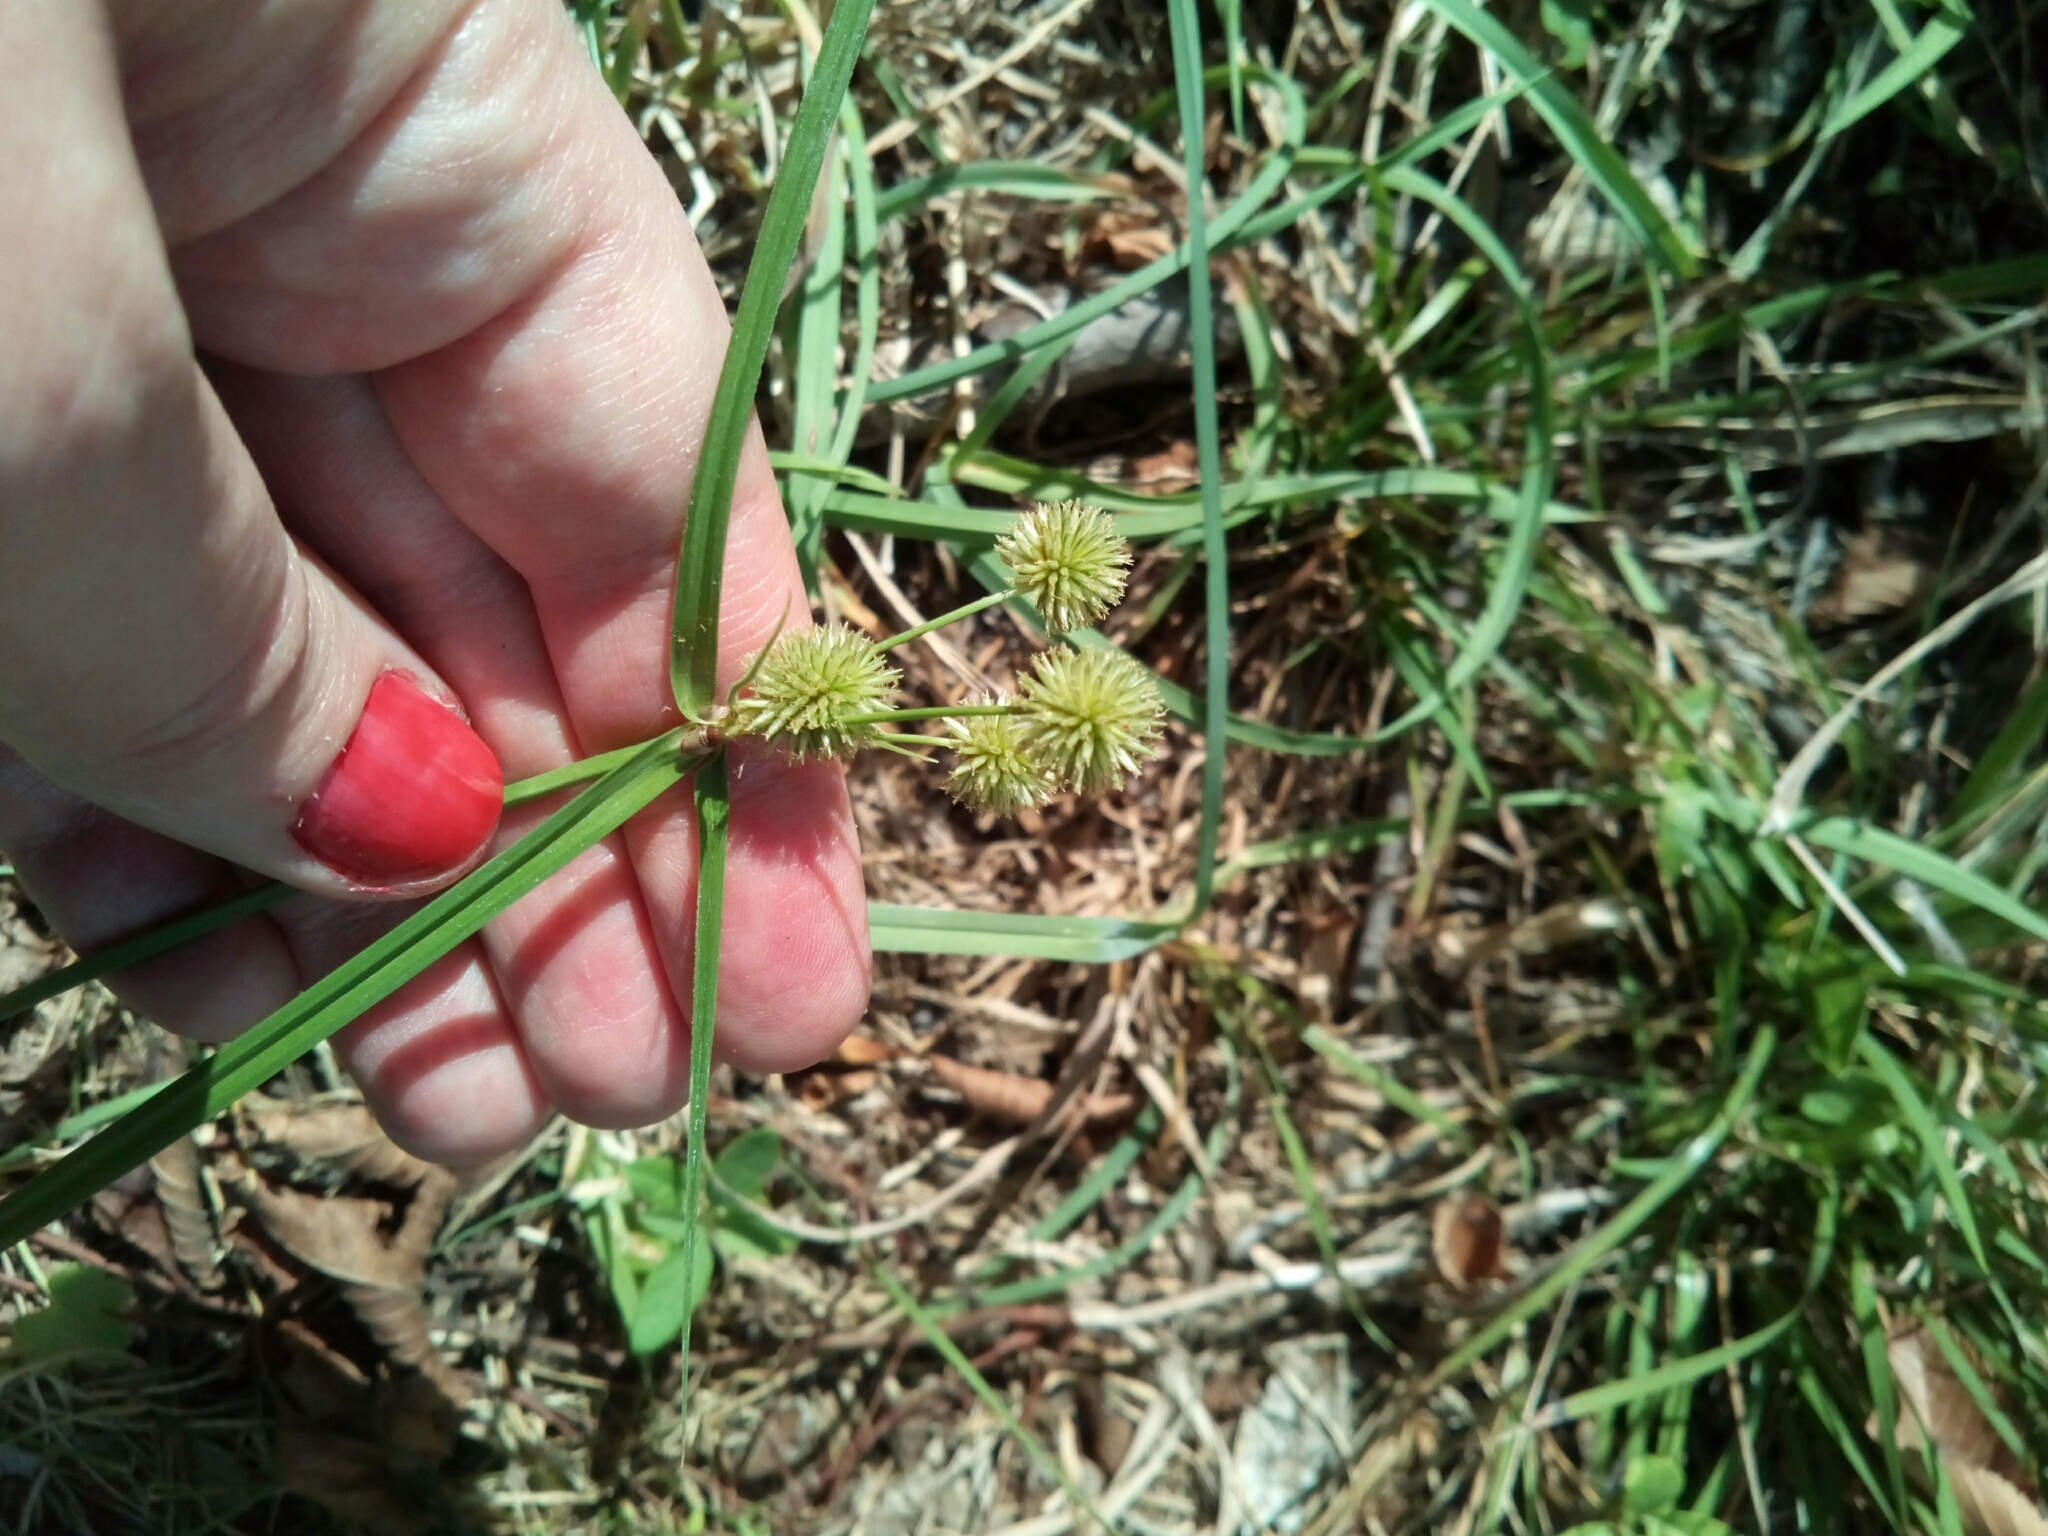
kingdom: Plantae
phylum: Tracheophyta
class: Liliopsida
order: Poales
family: Cyperaceae
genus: Cyperus
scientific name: Cyperus echinatus
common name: Teasel sedge
